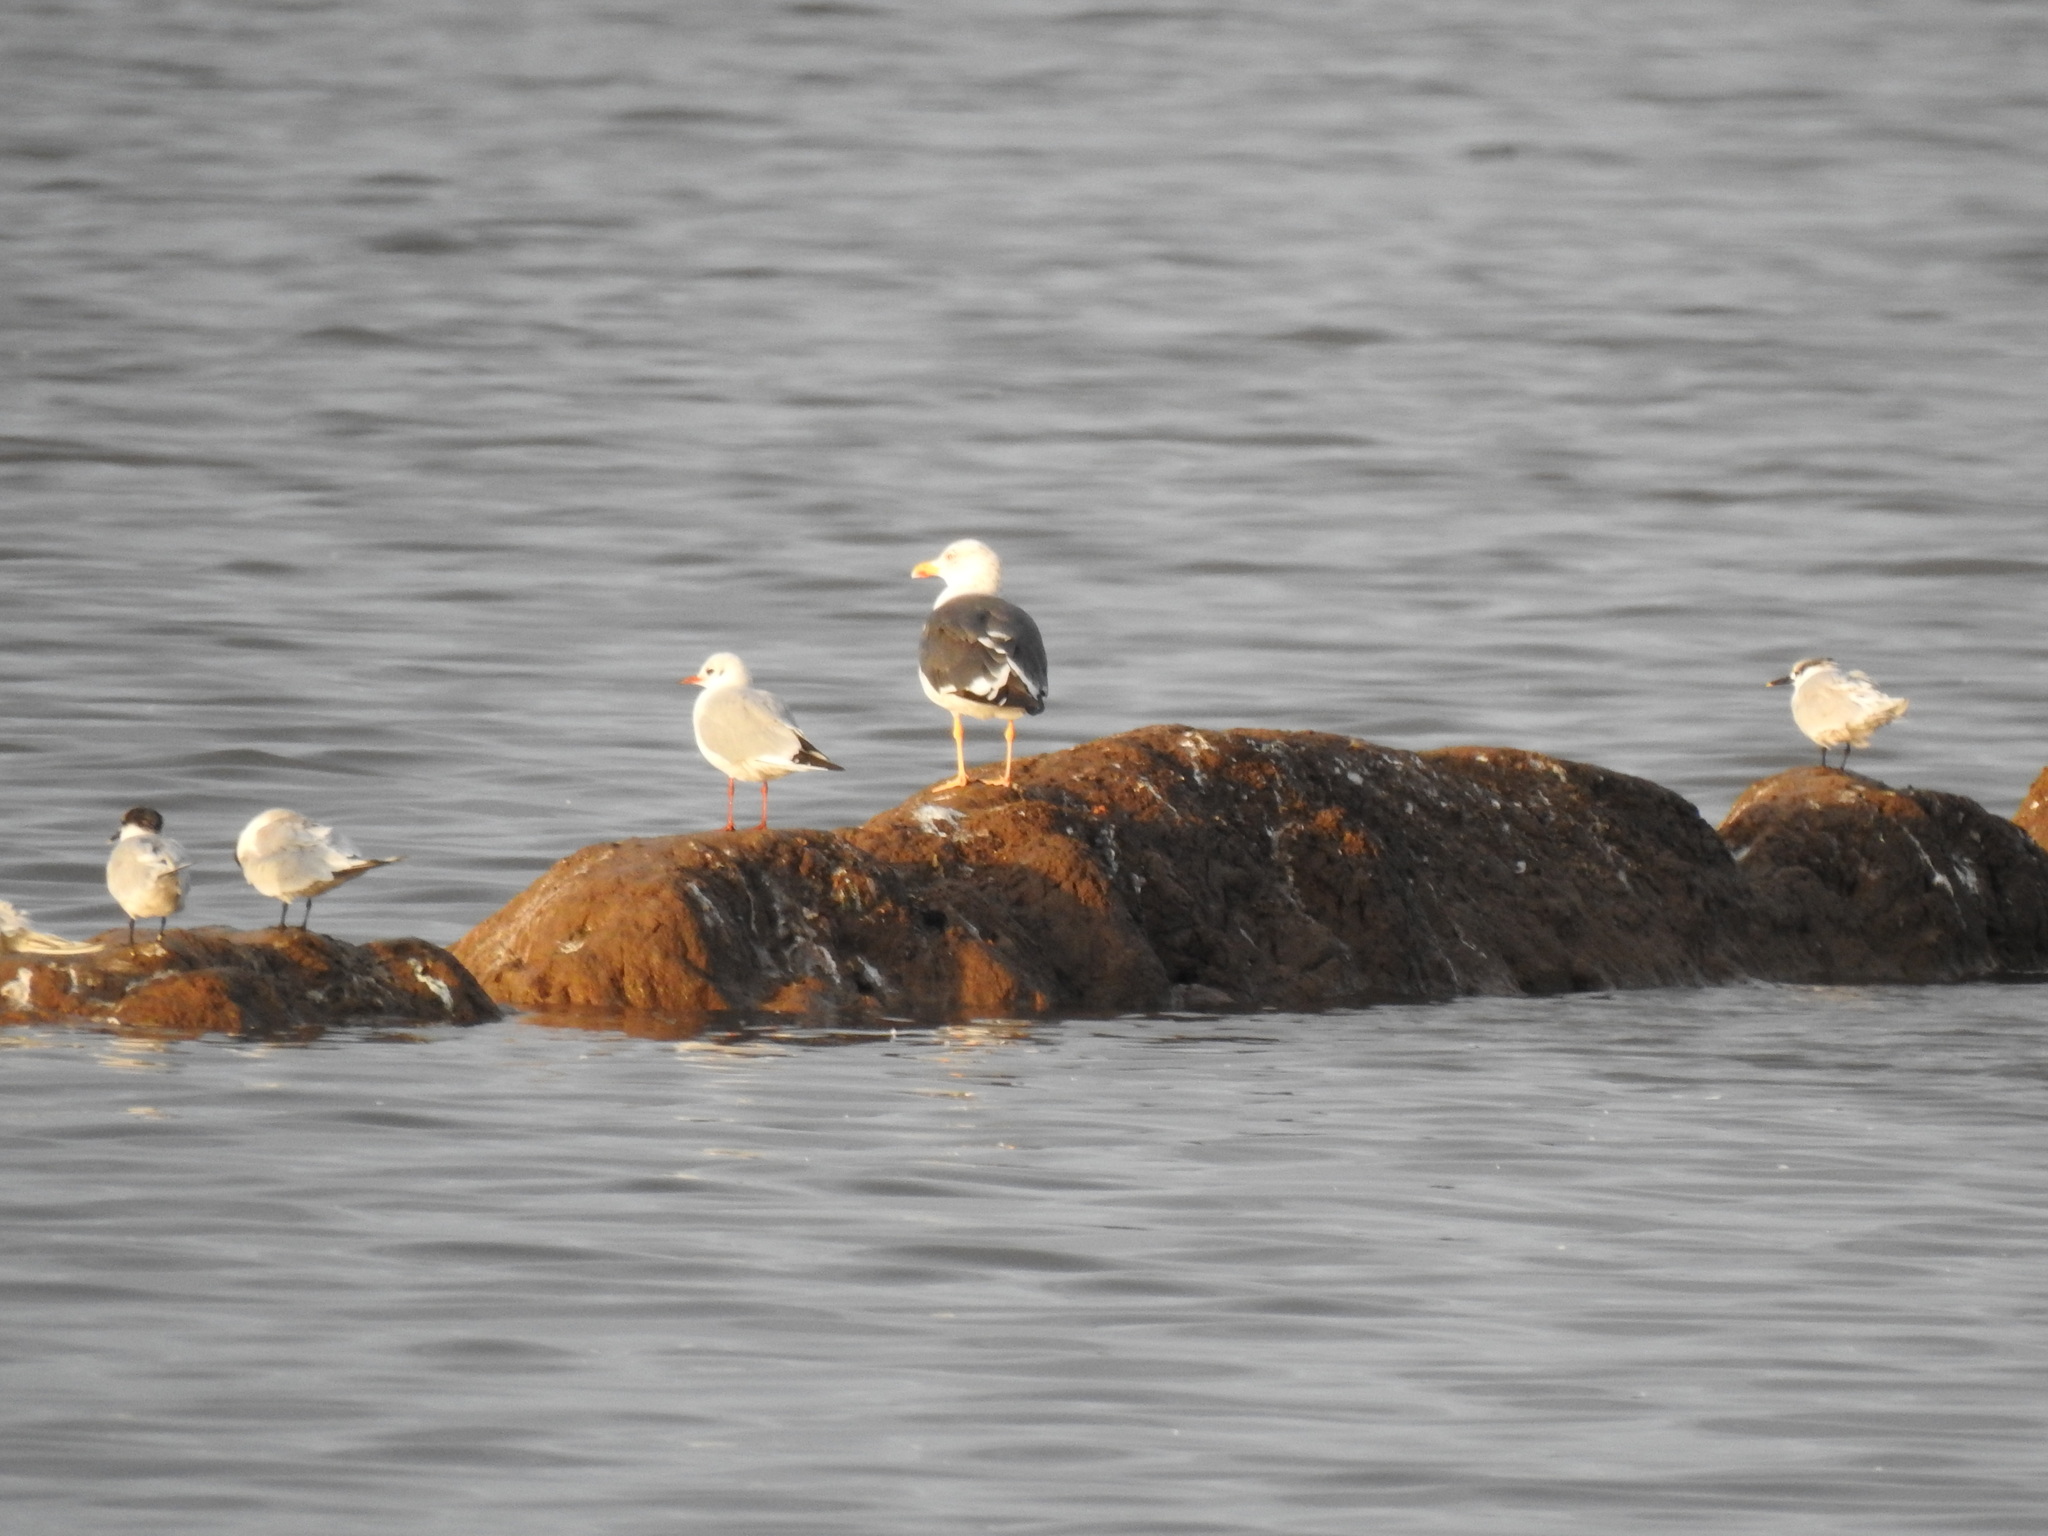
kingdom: Animalia
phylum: Chordata
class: Aves
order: Charadriiformes
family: Laridae
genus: Larus
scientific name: Larus fuscus
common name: Lesser black-backed gull
